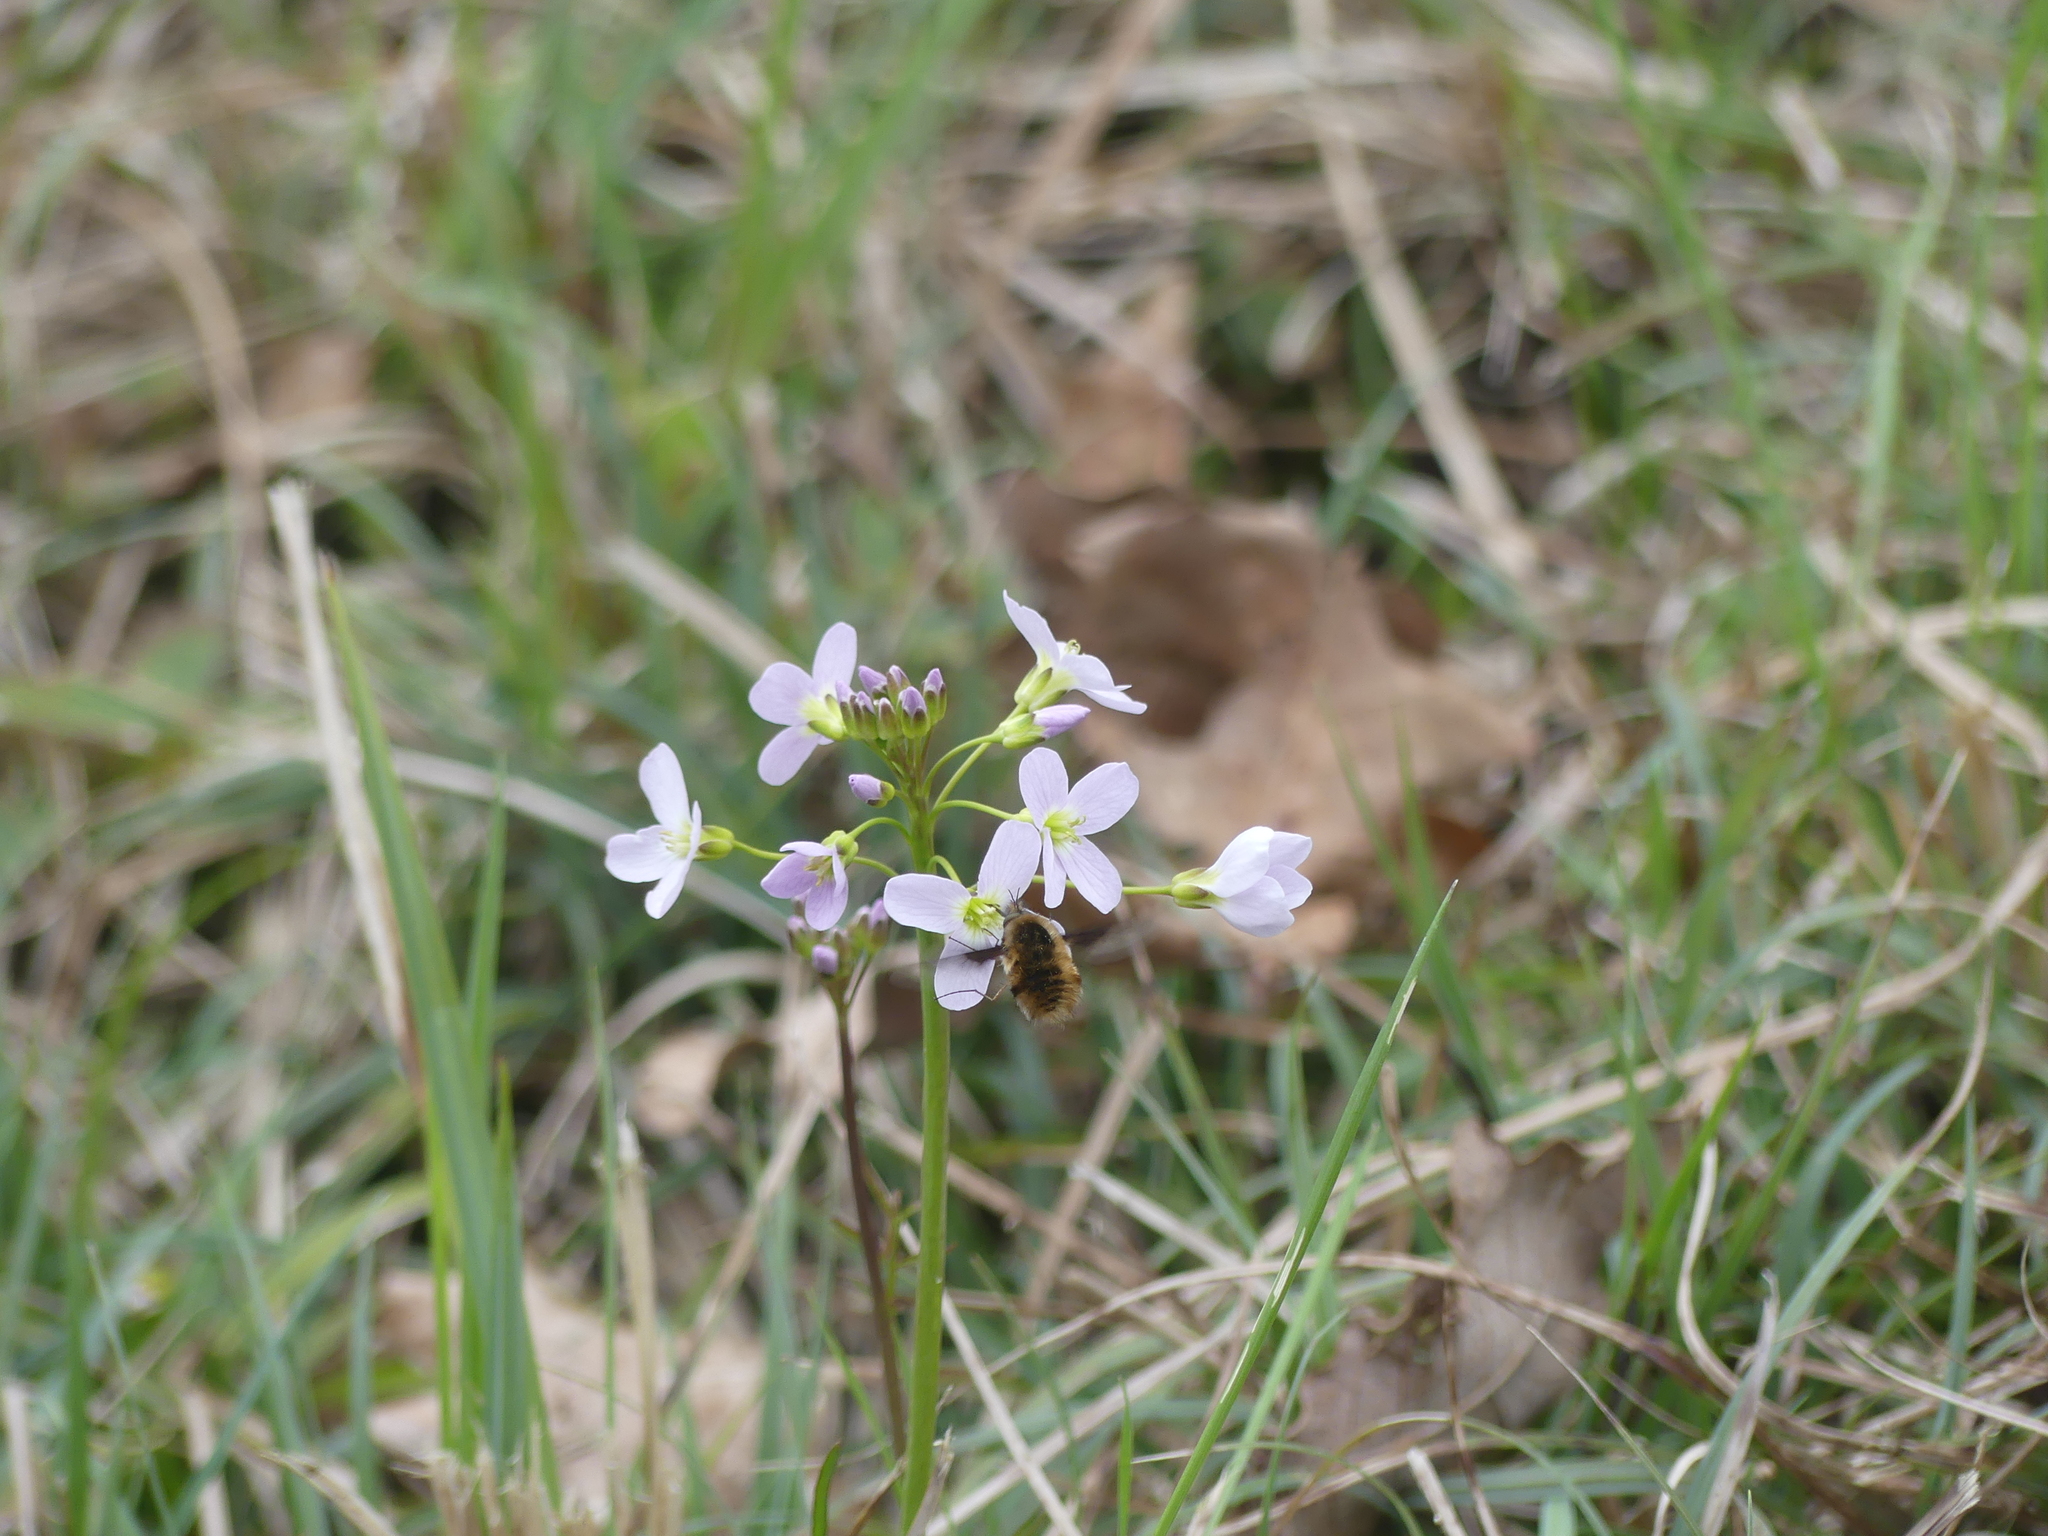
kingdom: Plantae
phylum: Tracheophyta
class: Magnoliopsida
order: Brassicales
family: Brassicaceae
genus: Cardamine
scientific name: Cardamine pratensis
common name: Cuckoo flower
